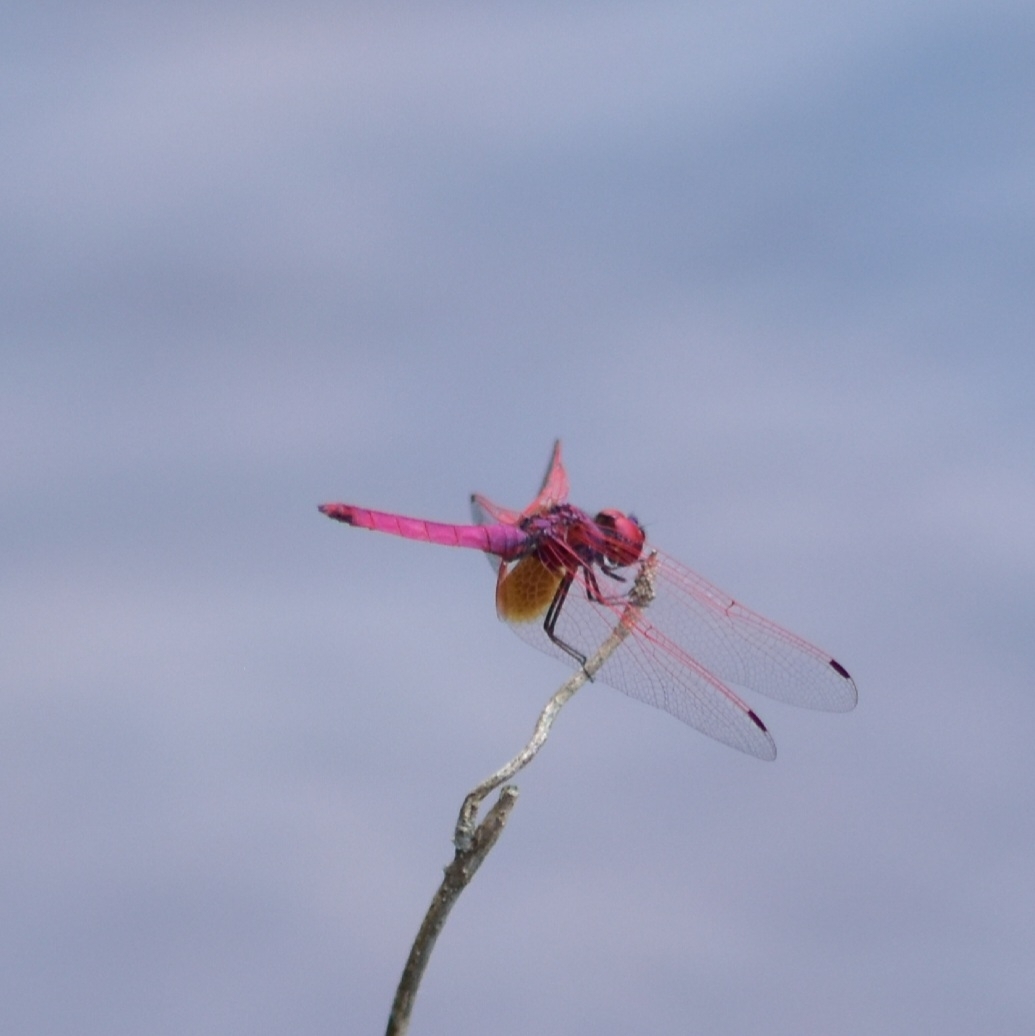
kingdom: Animalia
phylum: Arthropoda
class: Insecta
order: Odonata
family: Libellulidae
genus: Trithemis
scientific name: Trithemis aurora
